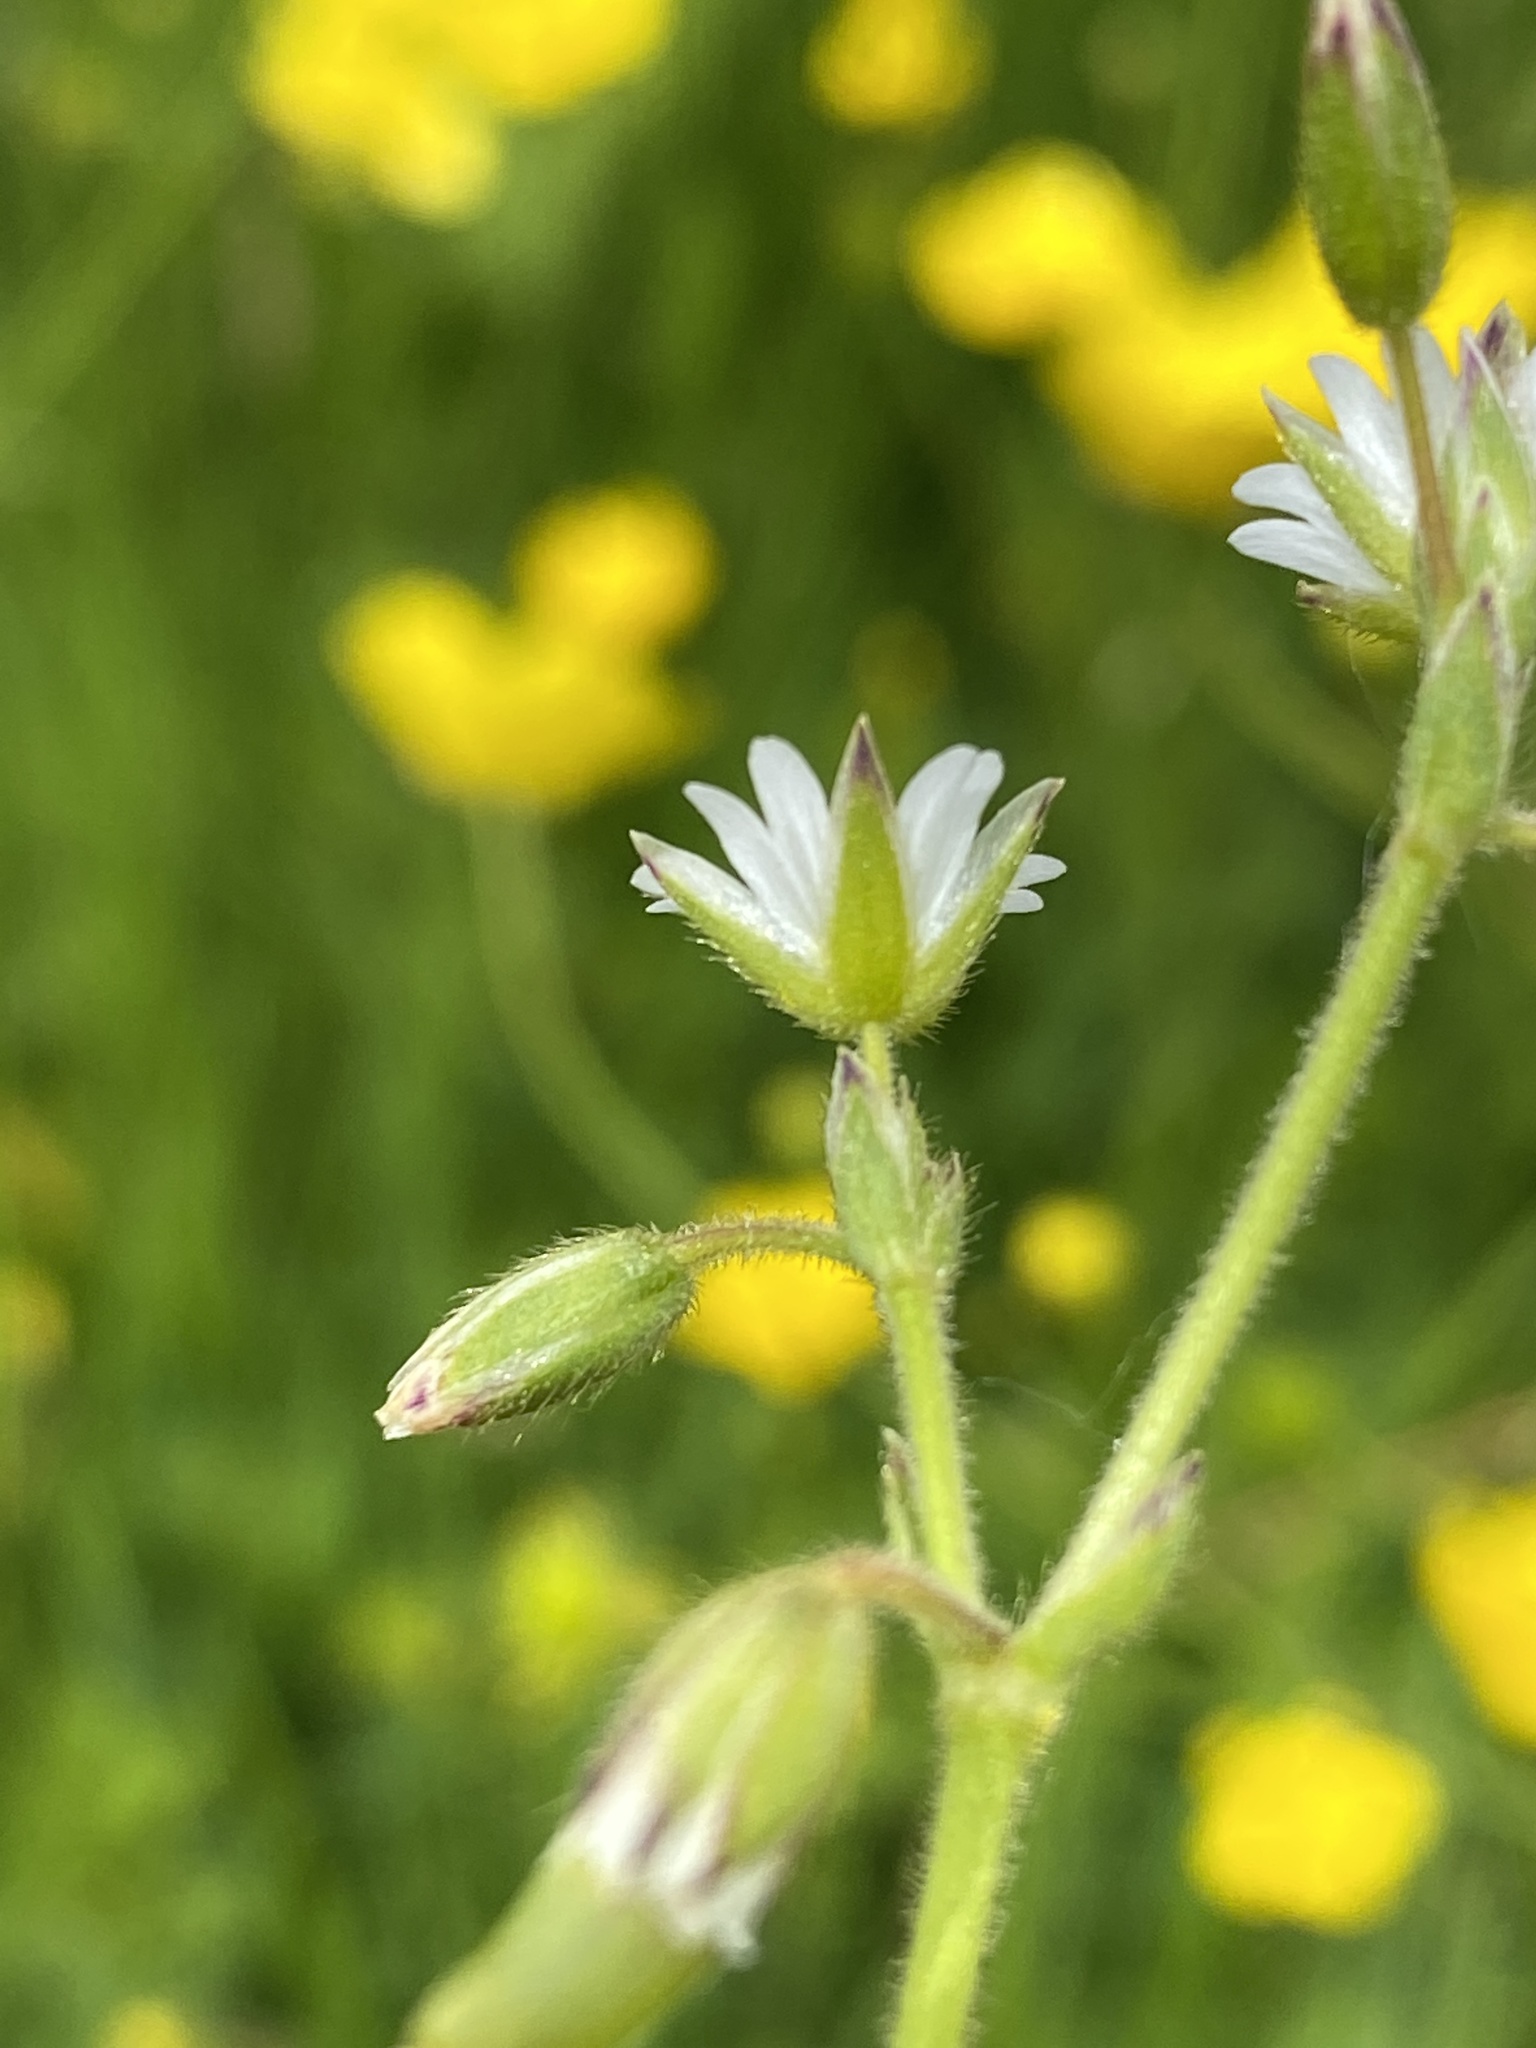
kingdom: Plantae
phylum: Tracheophyta
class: Magnoliopsida
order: Caryophyllales
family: Caryophyllaceae
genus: Cerastium
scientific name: Cerastium fontanum
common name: Common mouse-ear
